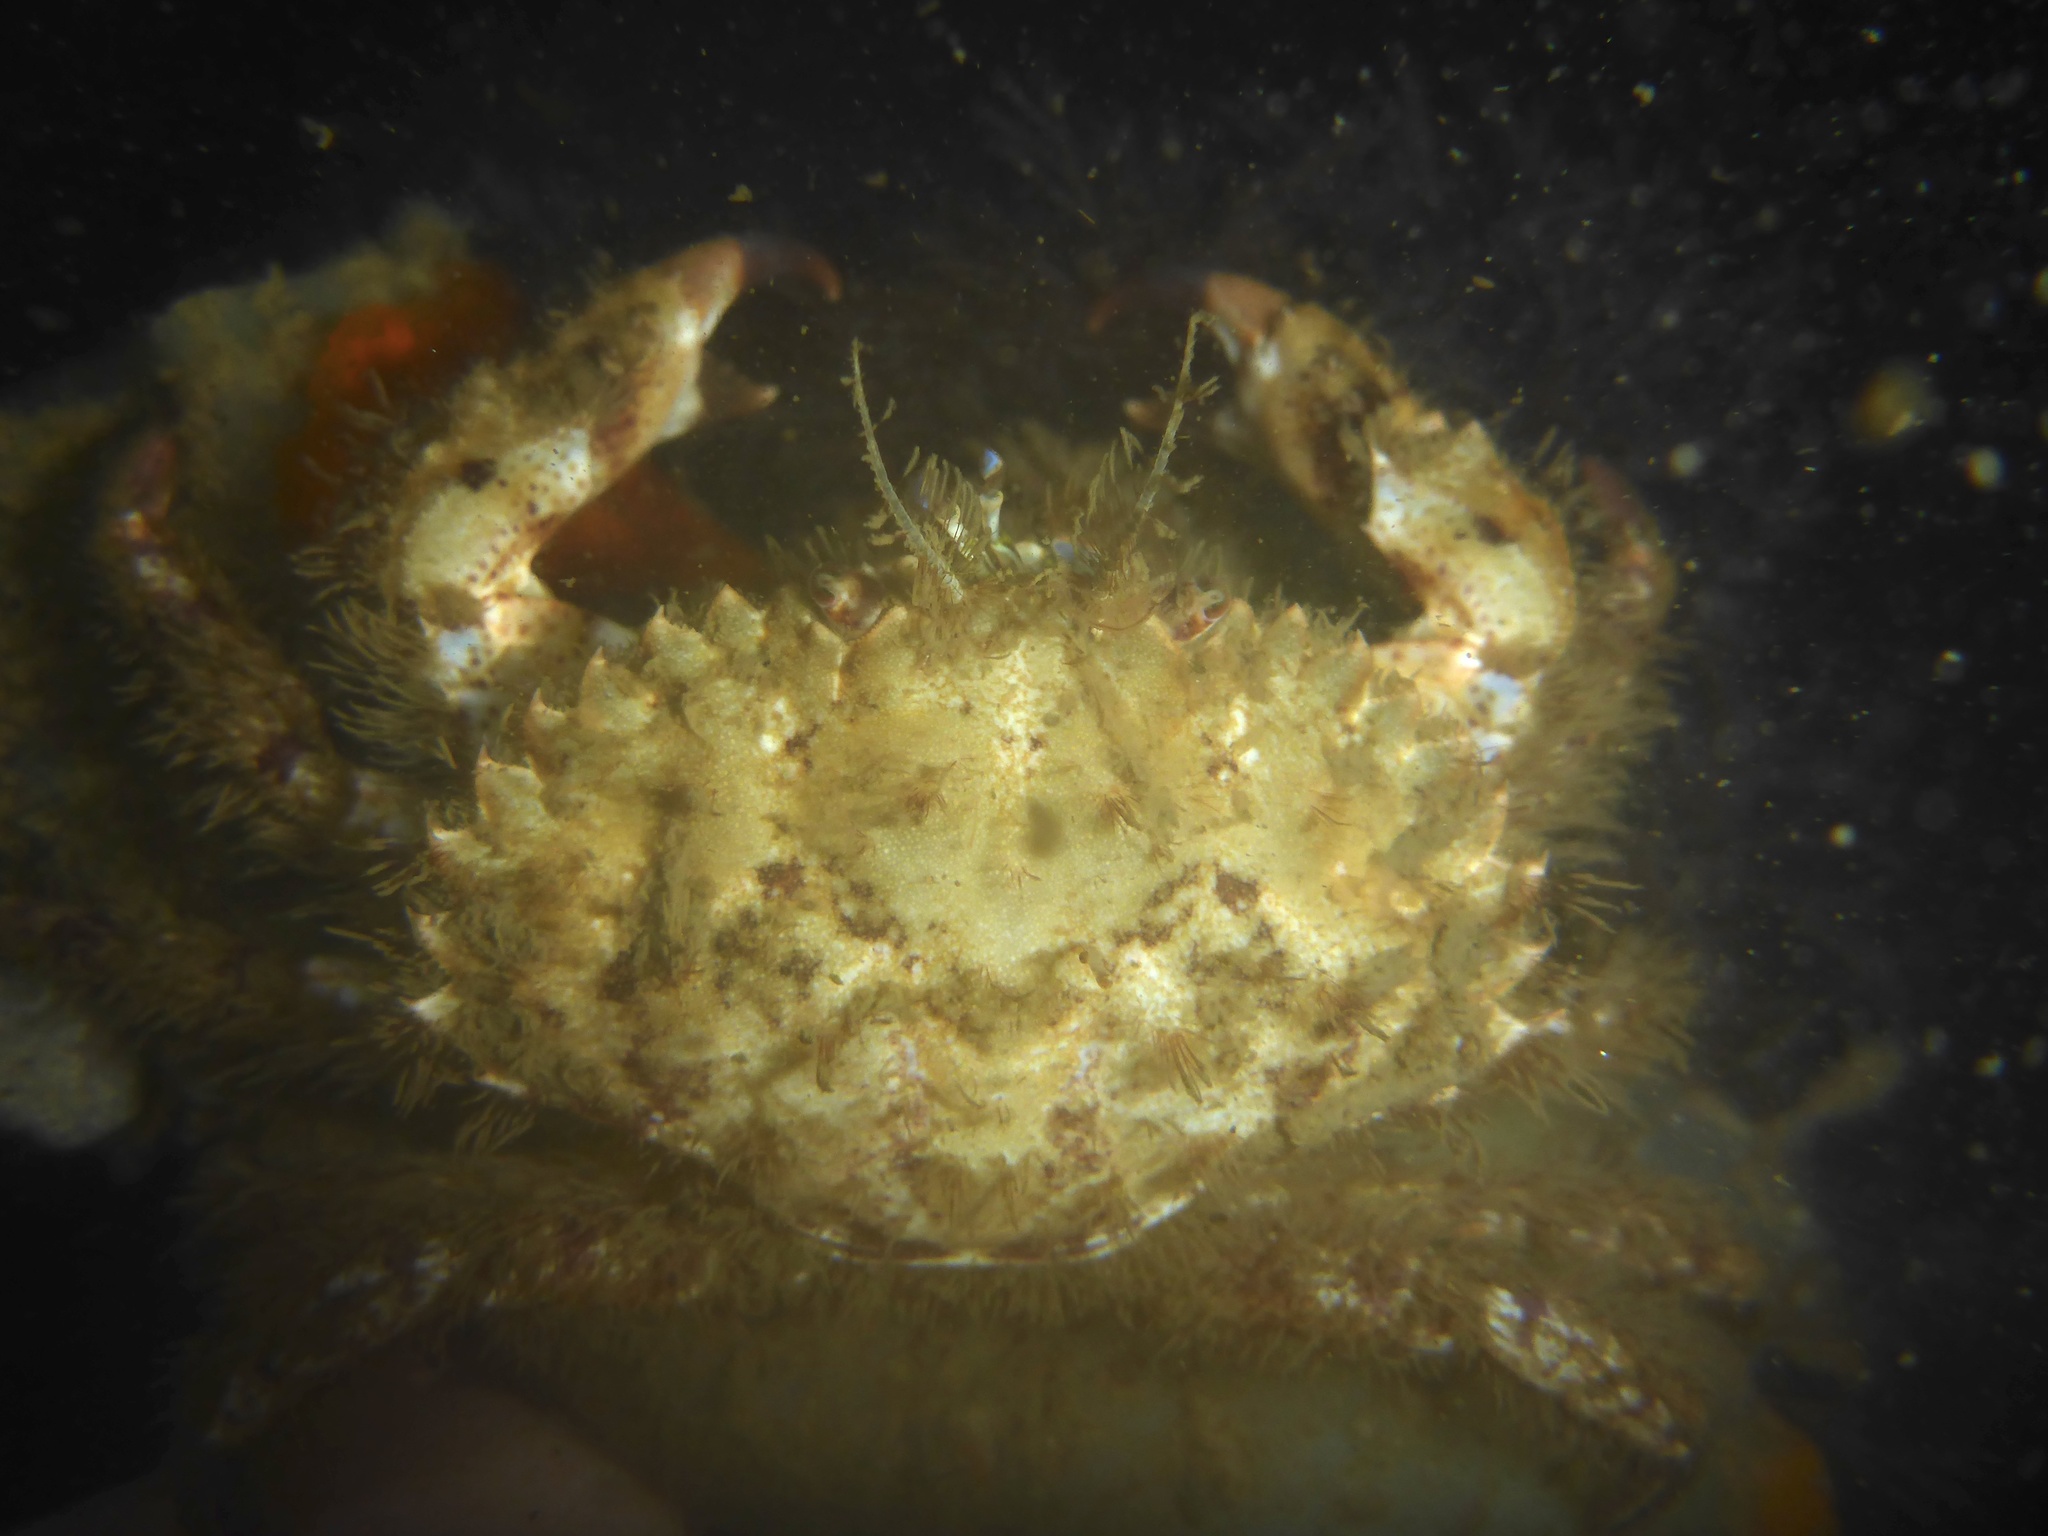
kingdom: Animalia
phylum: Arthropoda
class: Malacostraca
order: Decapoda
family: Cancridae
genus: Romaleon
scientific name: Romaleon antennarium
